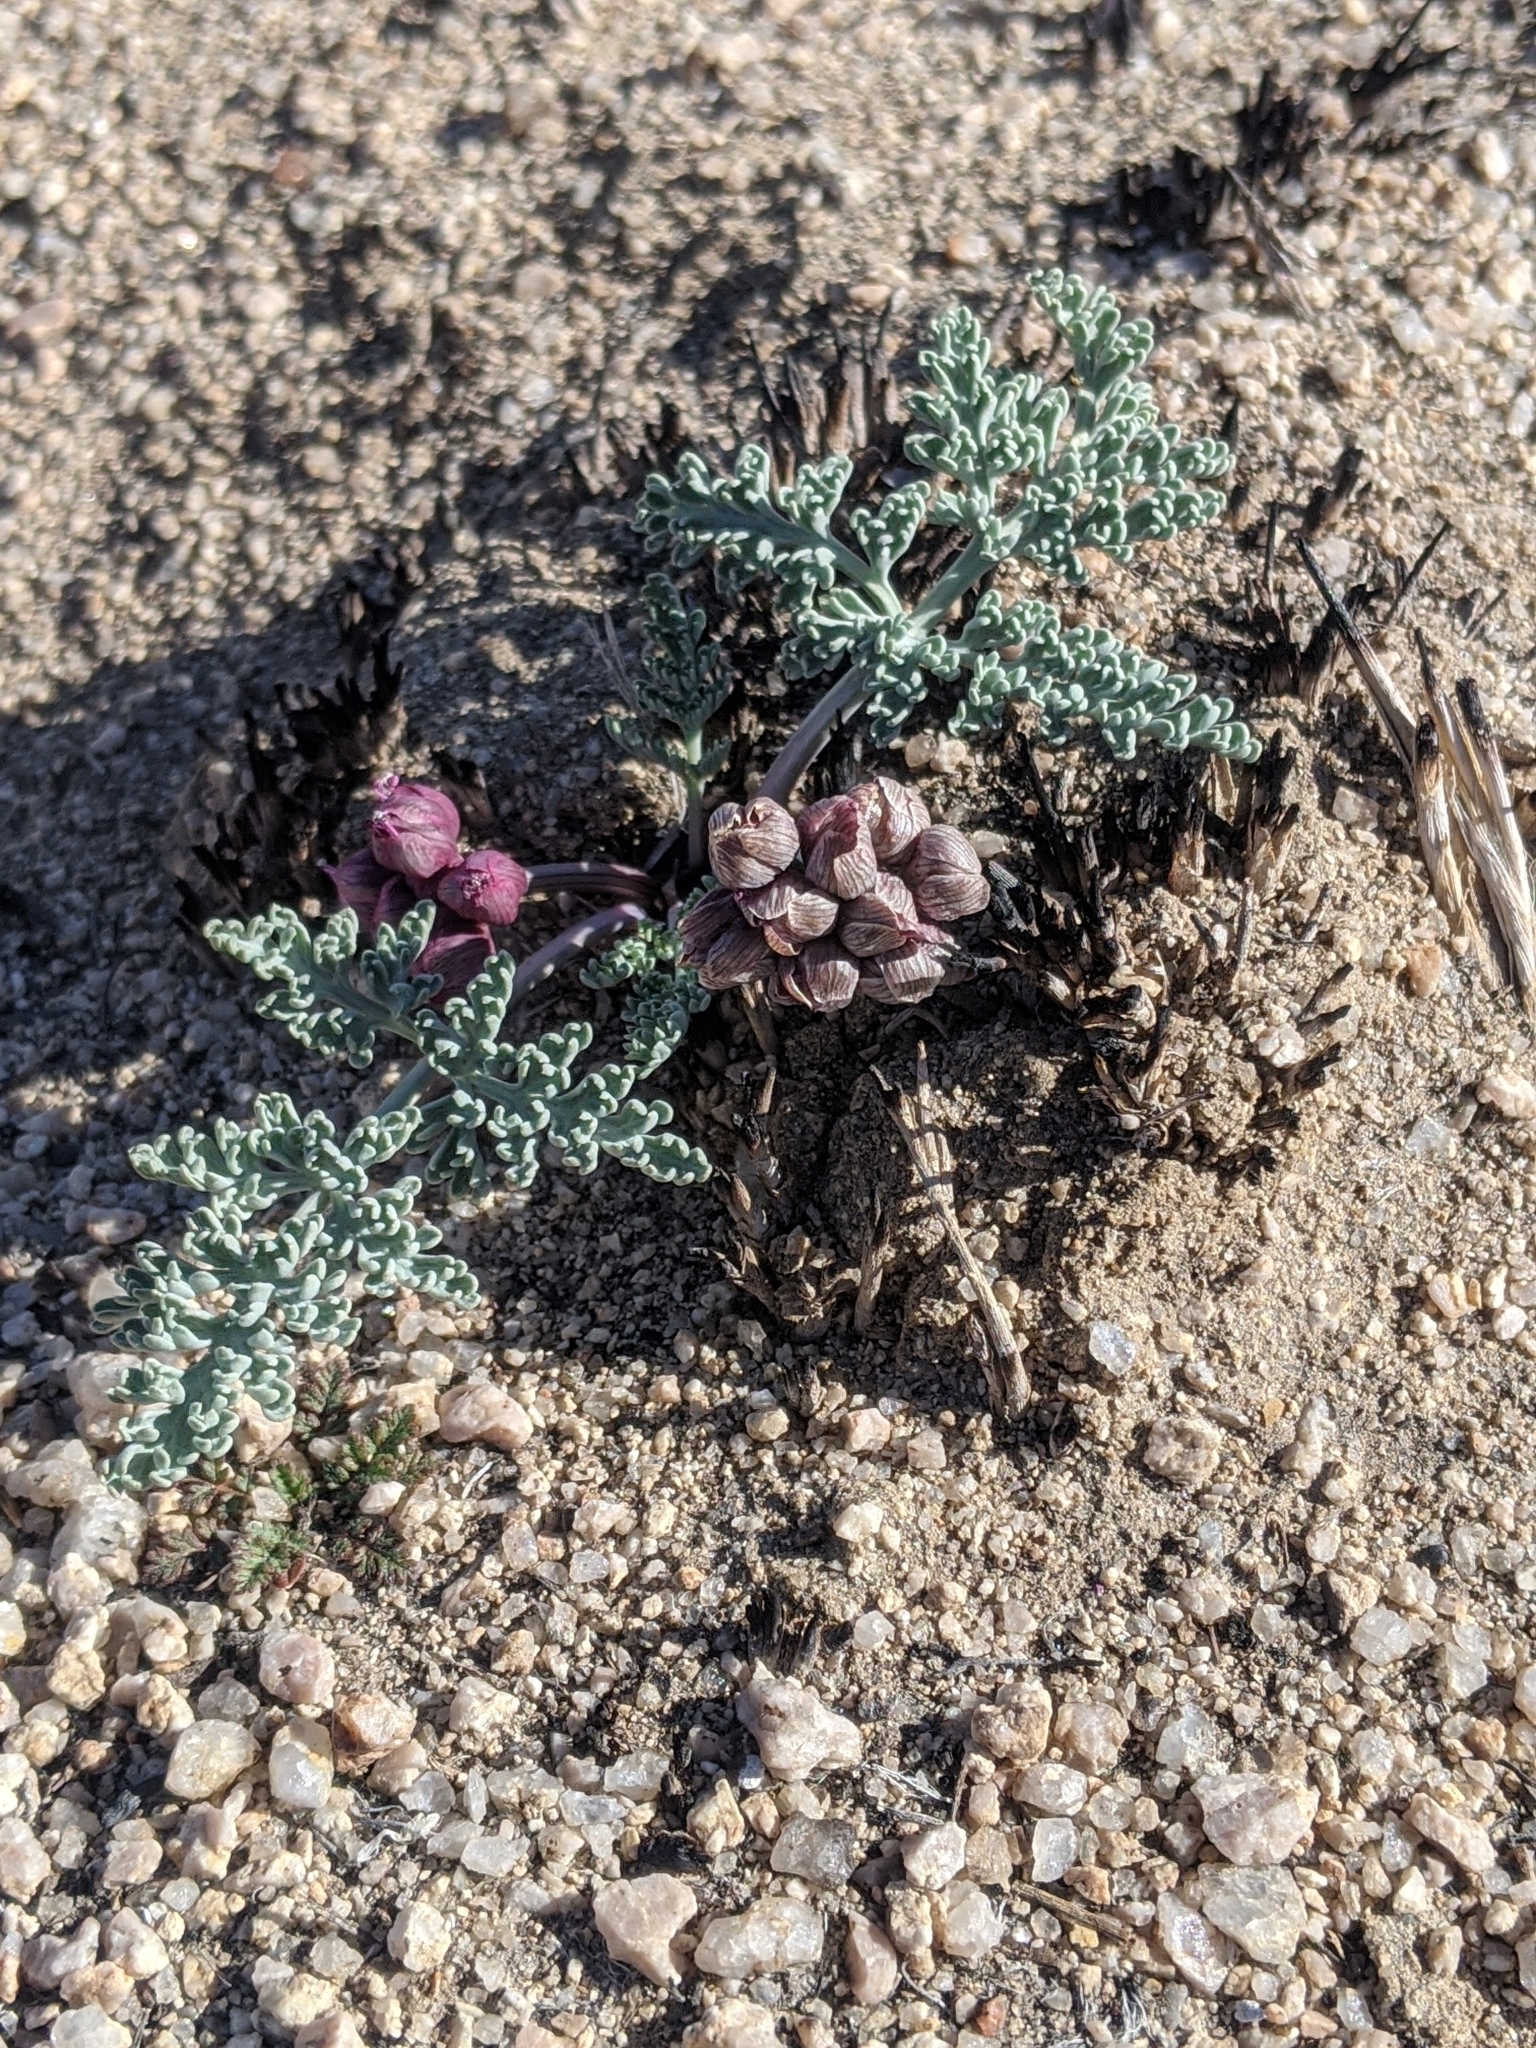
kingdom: Plantae
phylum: Tracheophyta
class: Magnoliopsida
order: Apiales
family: Apiaceae
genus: Vesper
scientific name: Vesper multinervatus
